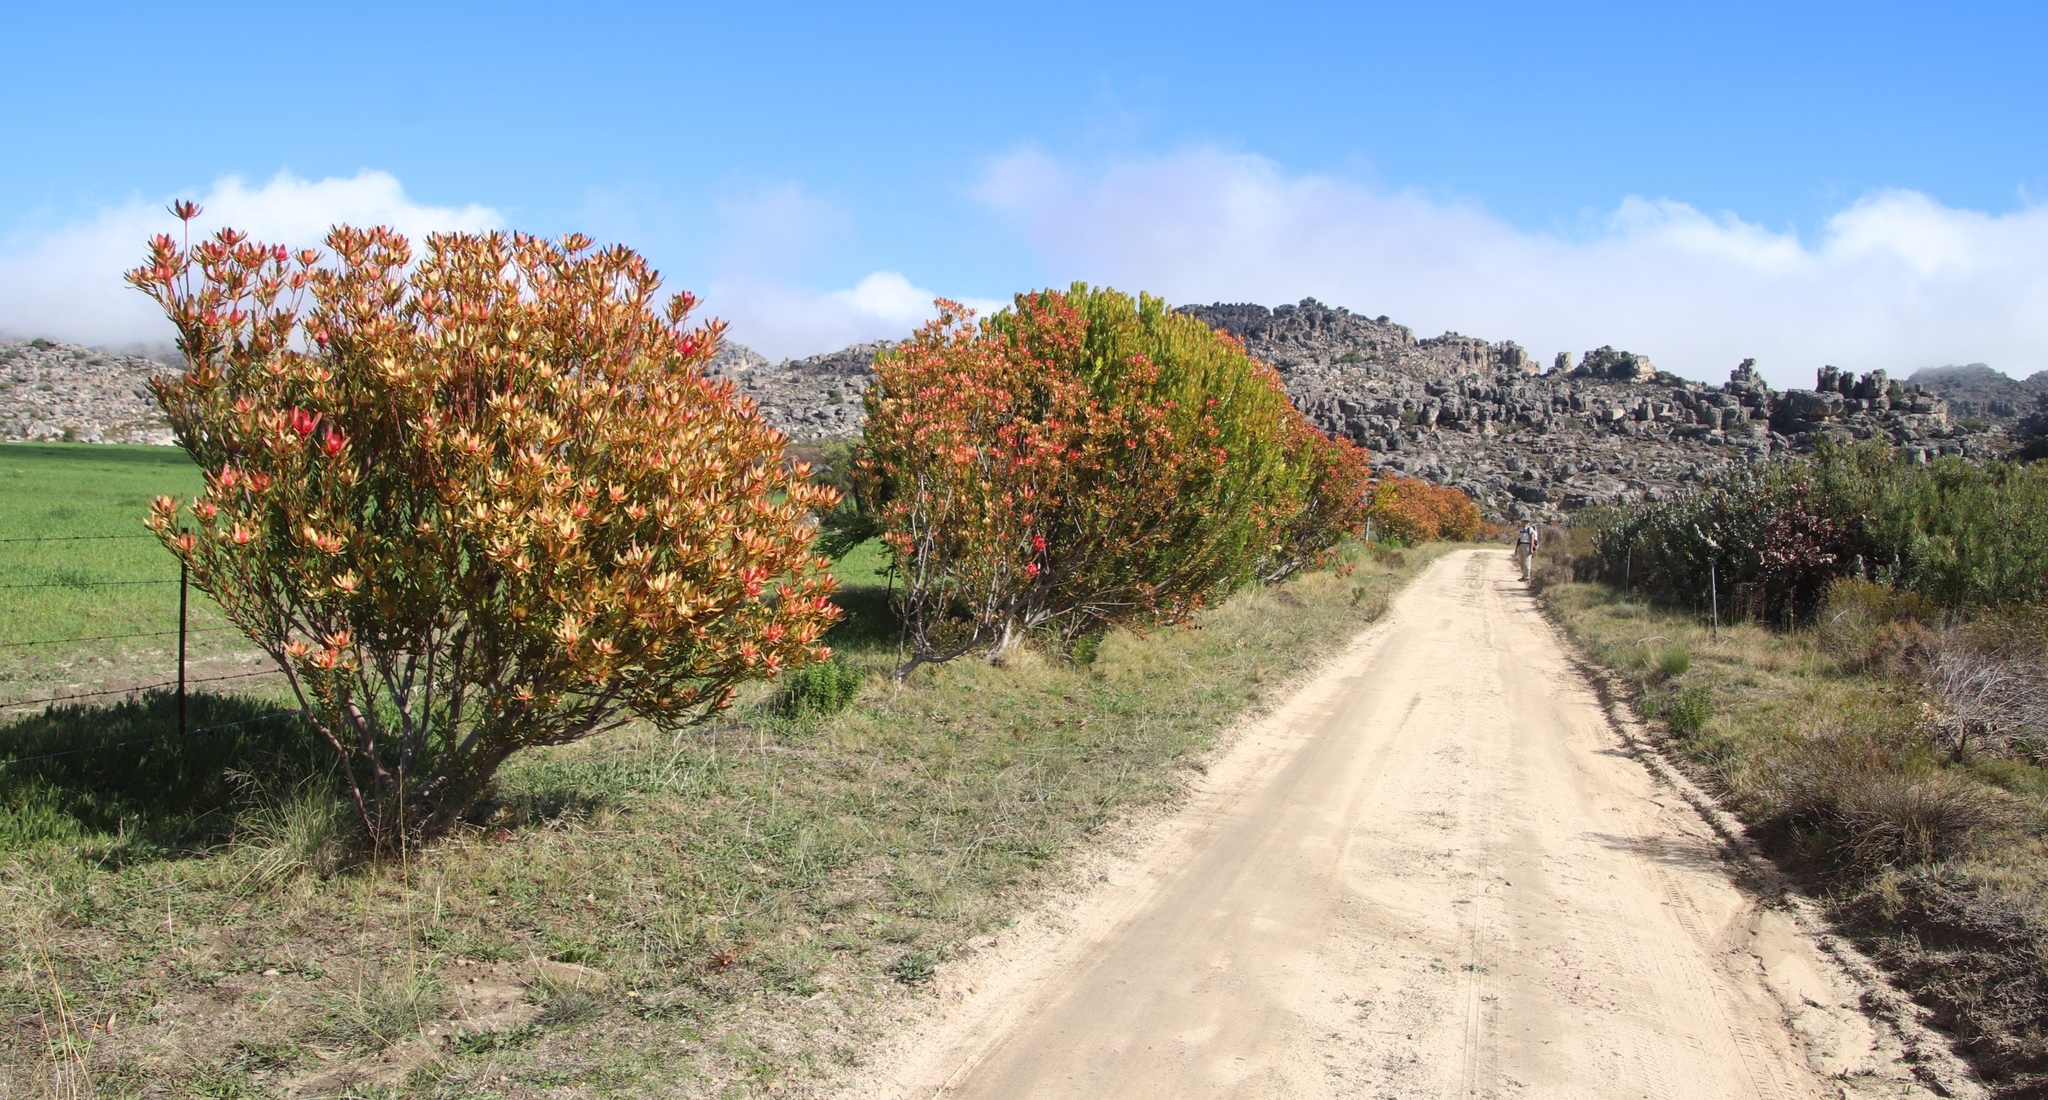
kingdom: Plantae
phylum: Tracheophyta
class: Magnoliopsida
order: Proteales
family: Proteaceae
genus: Leucadendron
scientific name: Leucadendron
